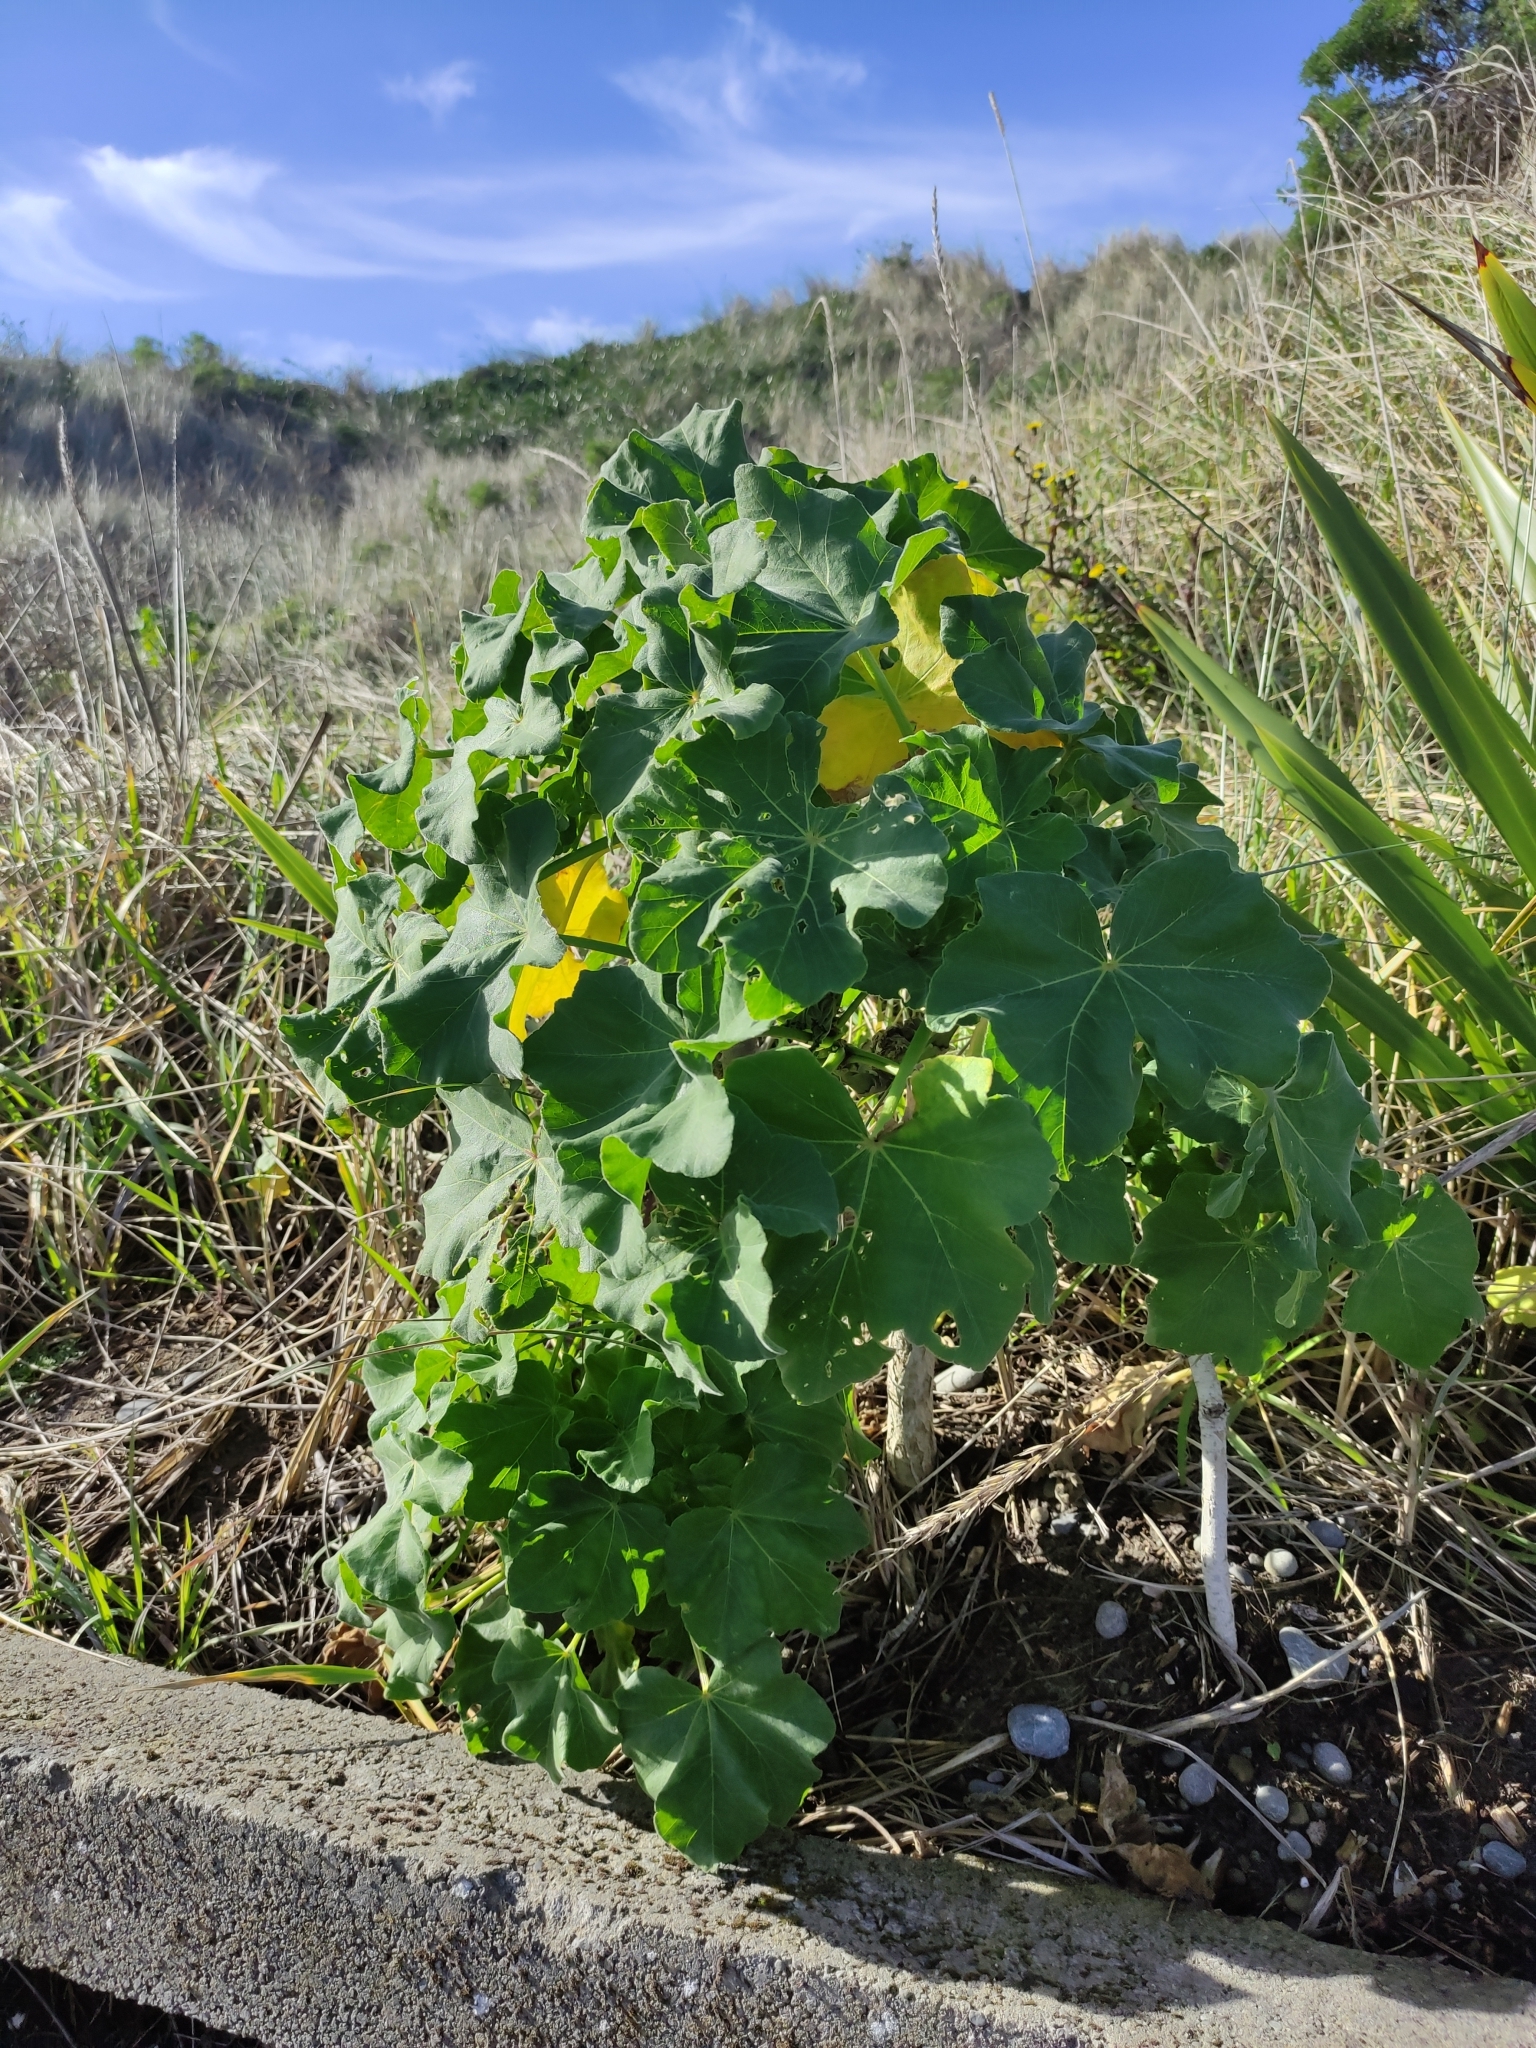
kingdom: Plantae
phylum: Tracheophyta
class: Magnoliopsida
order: Malvales
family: Malvaceae
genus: Malva
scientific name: Malva arborea
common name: Tree mallow
